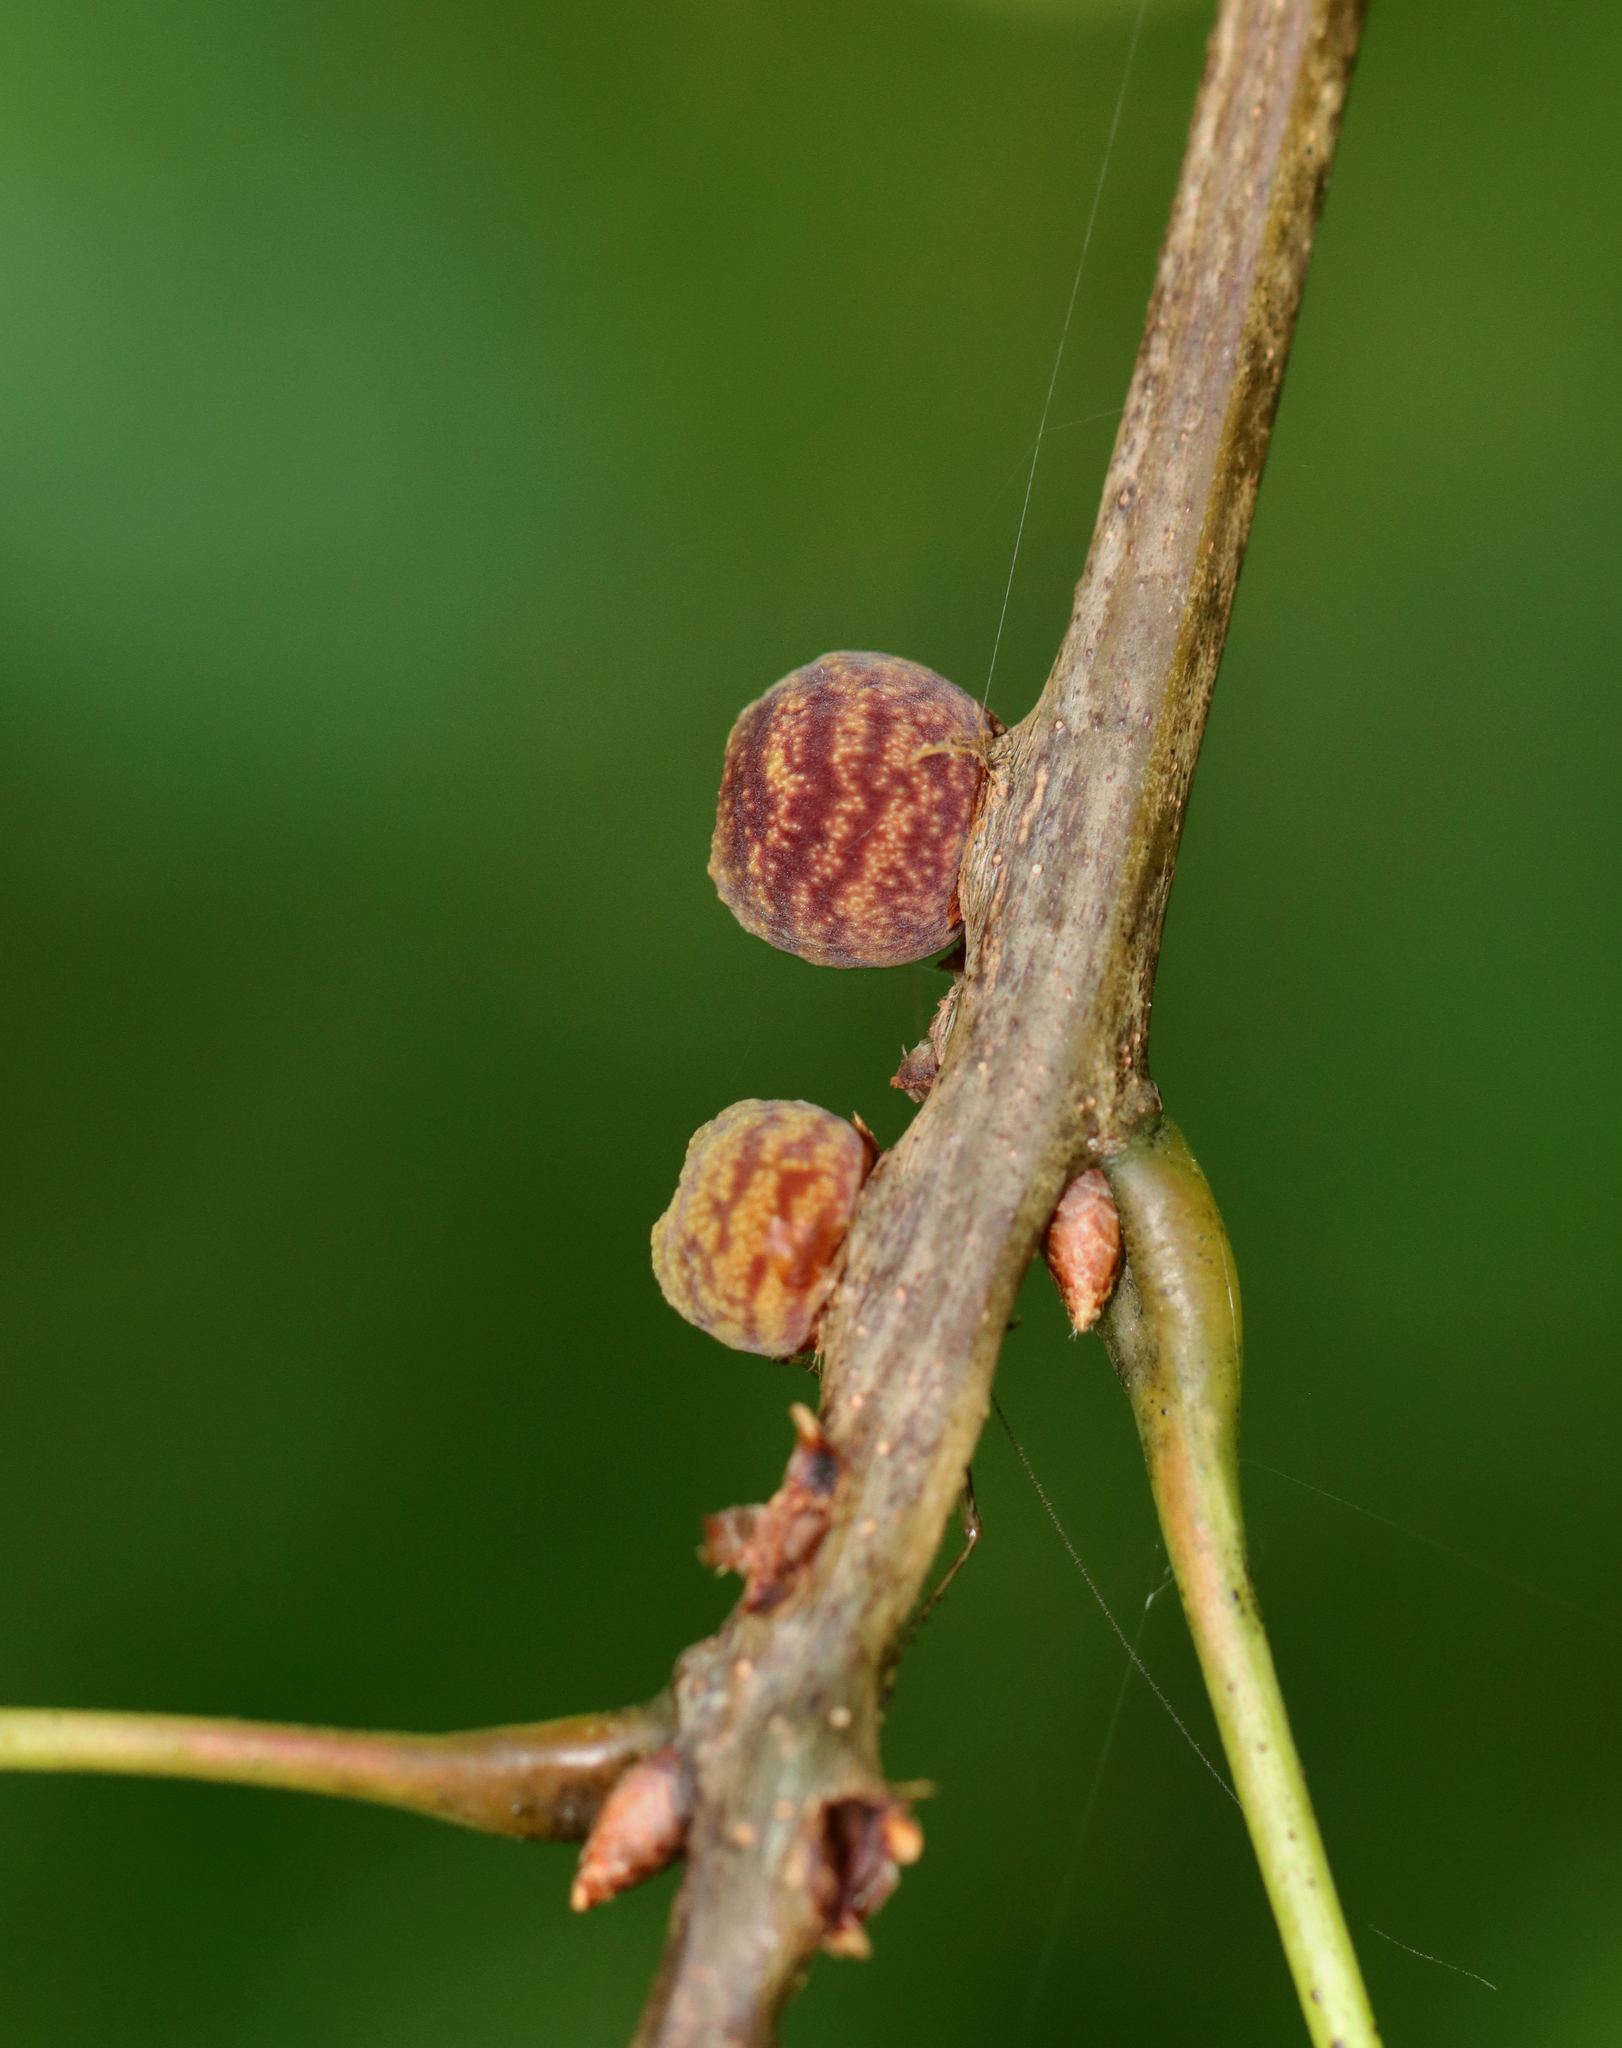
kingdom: Animalia
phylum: Arthropoda
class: Insecta
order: Hymenoptera
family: Cynipidae
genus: Kokkocynips
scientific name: Kokkocynips imbricariae
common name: Banded bullet gall wasp
